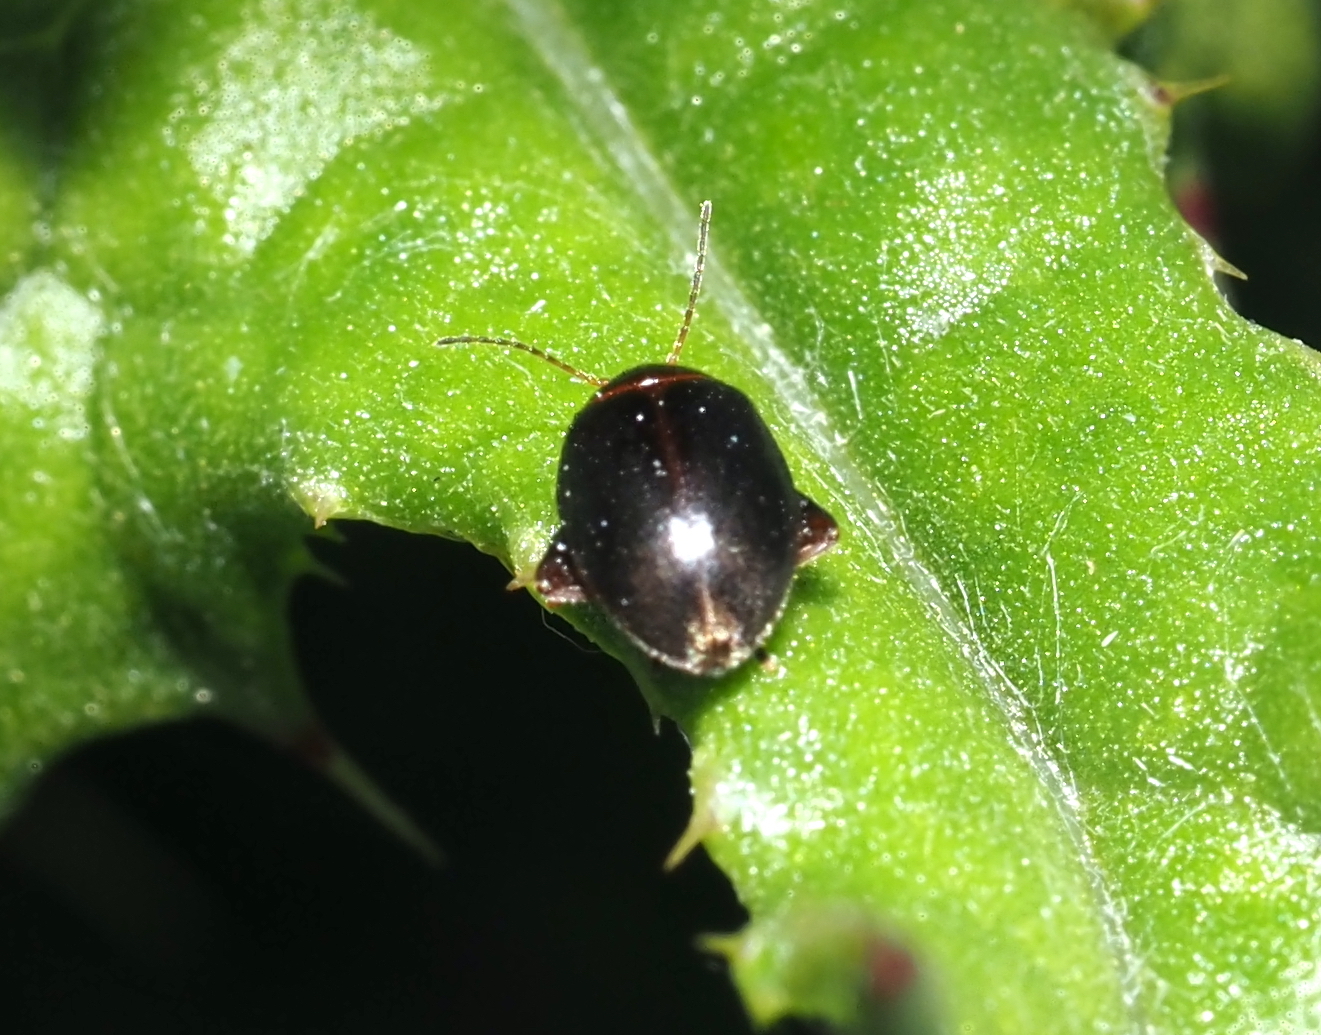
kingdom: Animalia
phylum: Arthropoda
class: Insecta
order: Coleoptera
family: Scirtidae
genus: Scirtes
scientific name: Scirtes tibialis
